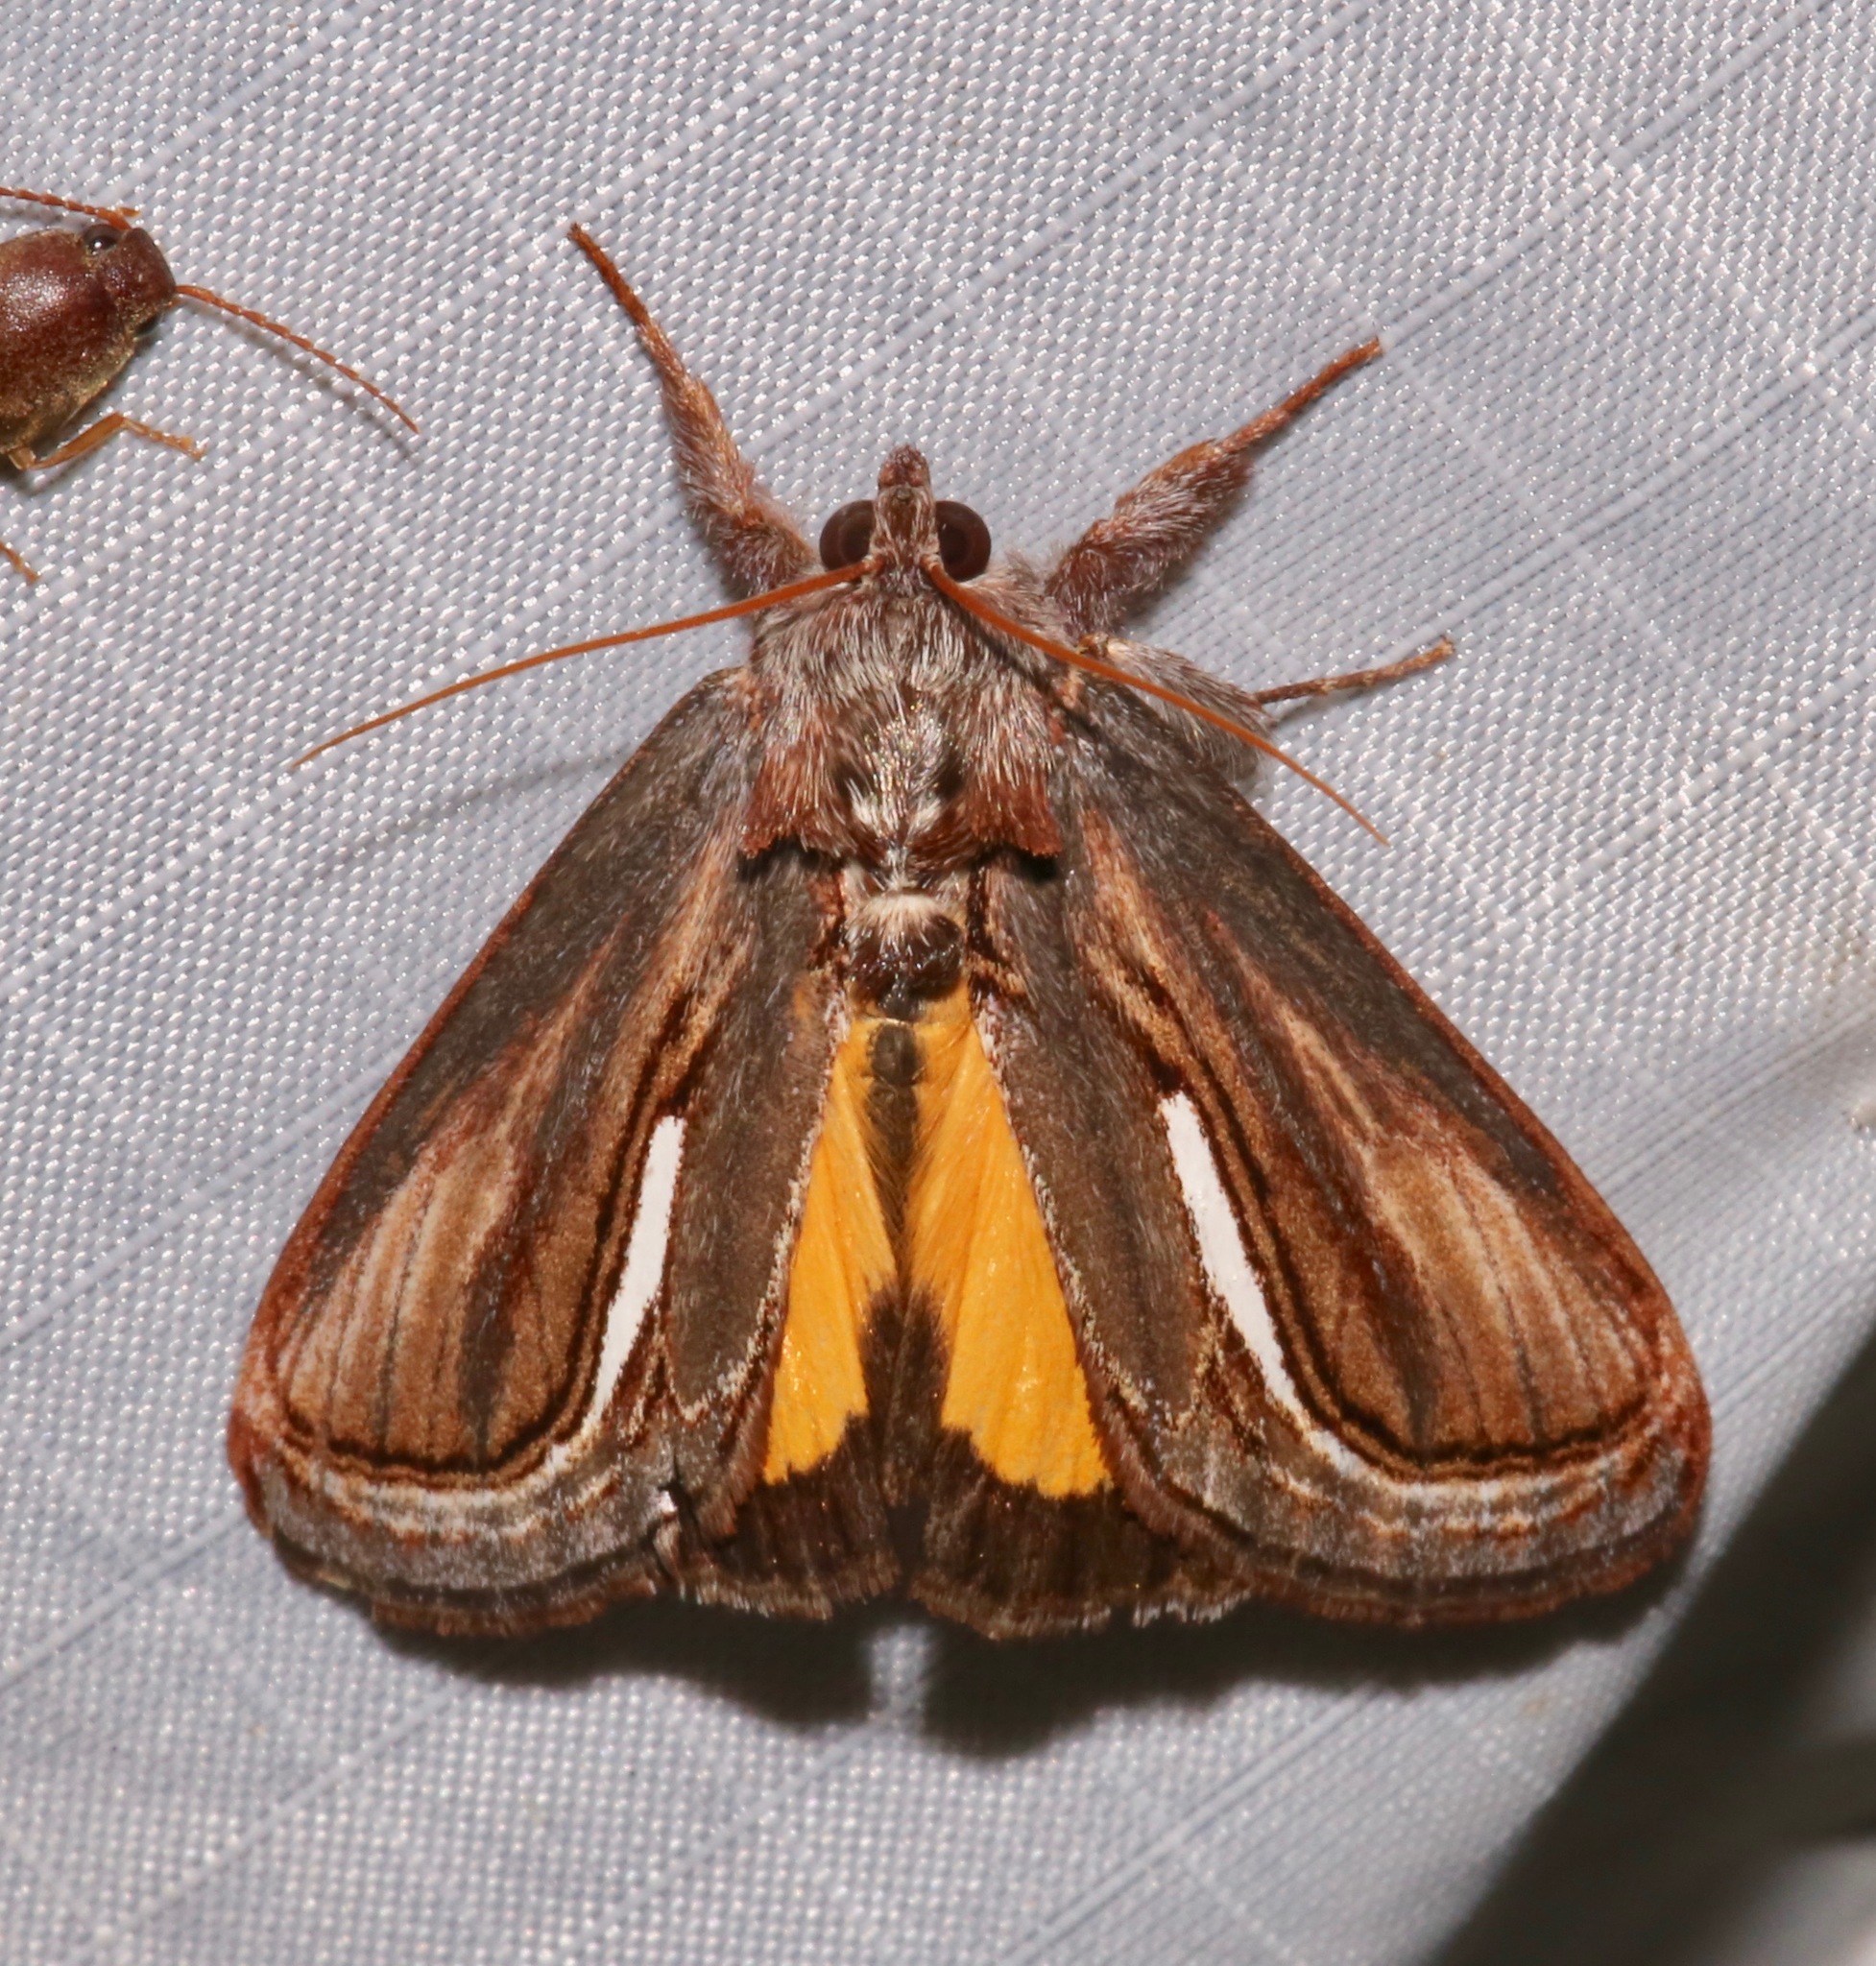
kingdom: Animalia
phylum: Arthropoda
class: Insecta
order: Lepidoptera
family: Noctuidae
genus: Gerrodes
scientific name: Gerrodes minatea
